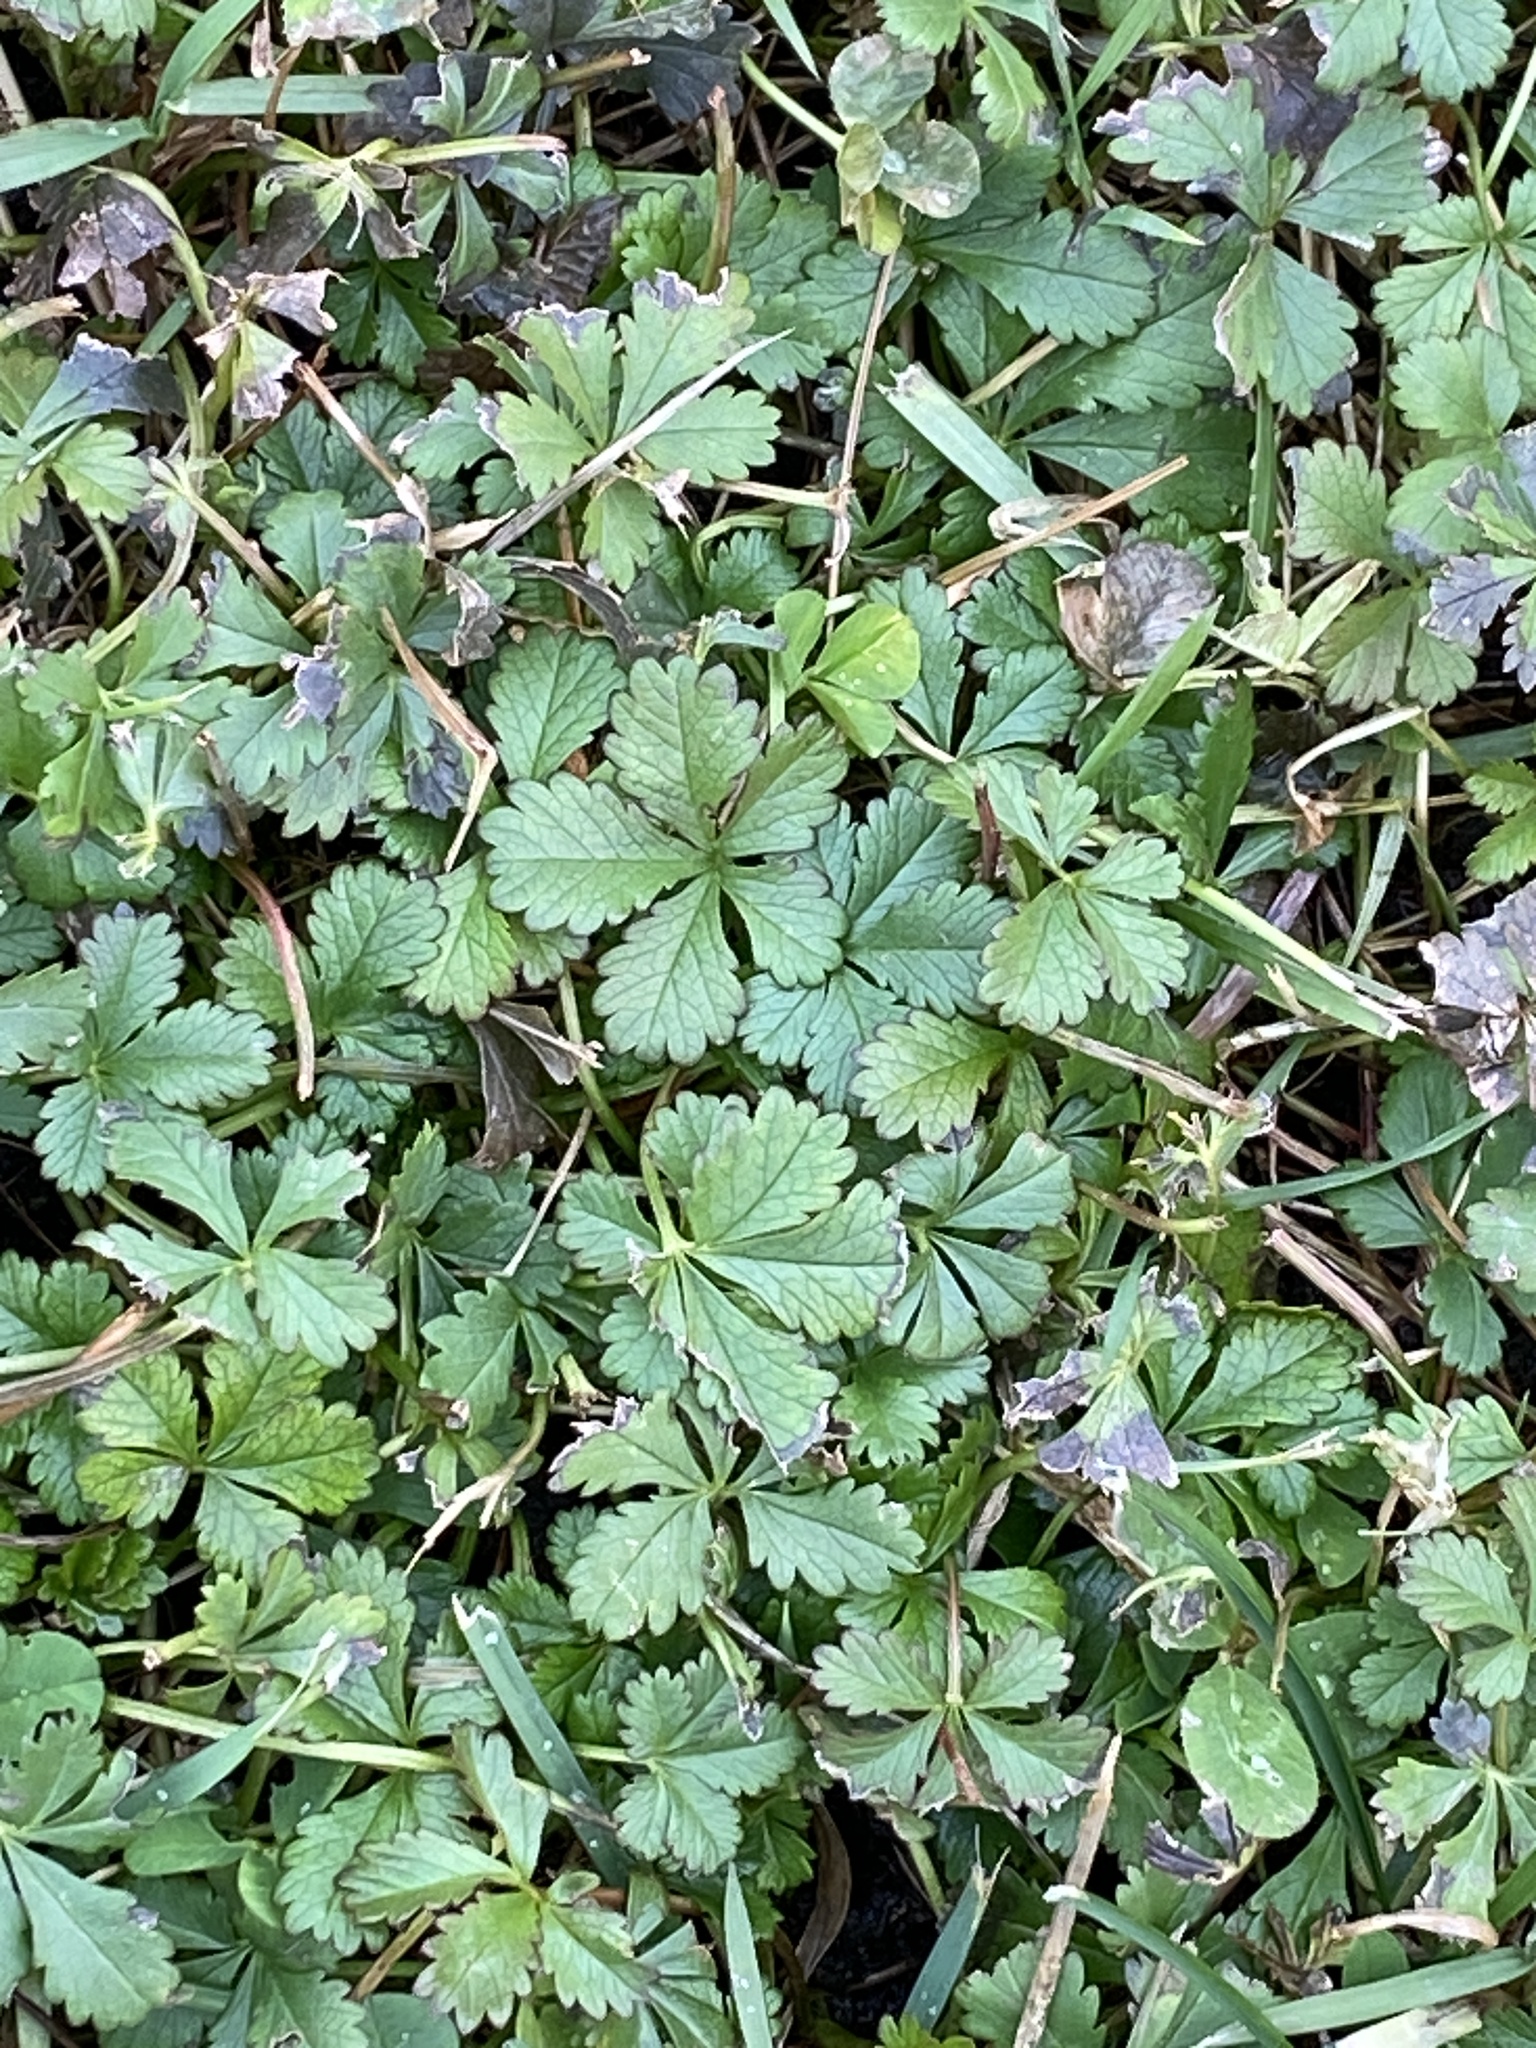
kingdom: Plantae
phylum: Tracheophyta
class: Magnoliopsida
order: Rosales
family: Rosaceae
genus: Potentilla
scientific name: Potentilla reptans
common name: Creeping cinquefoil
